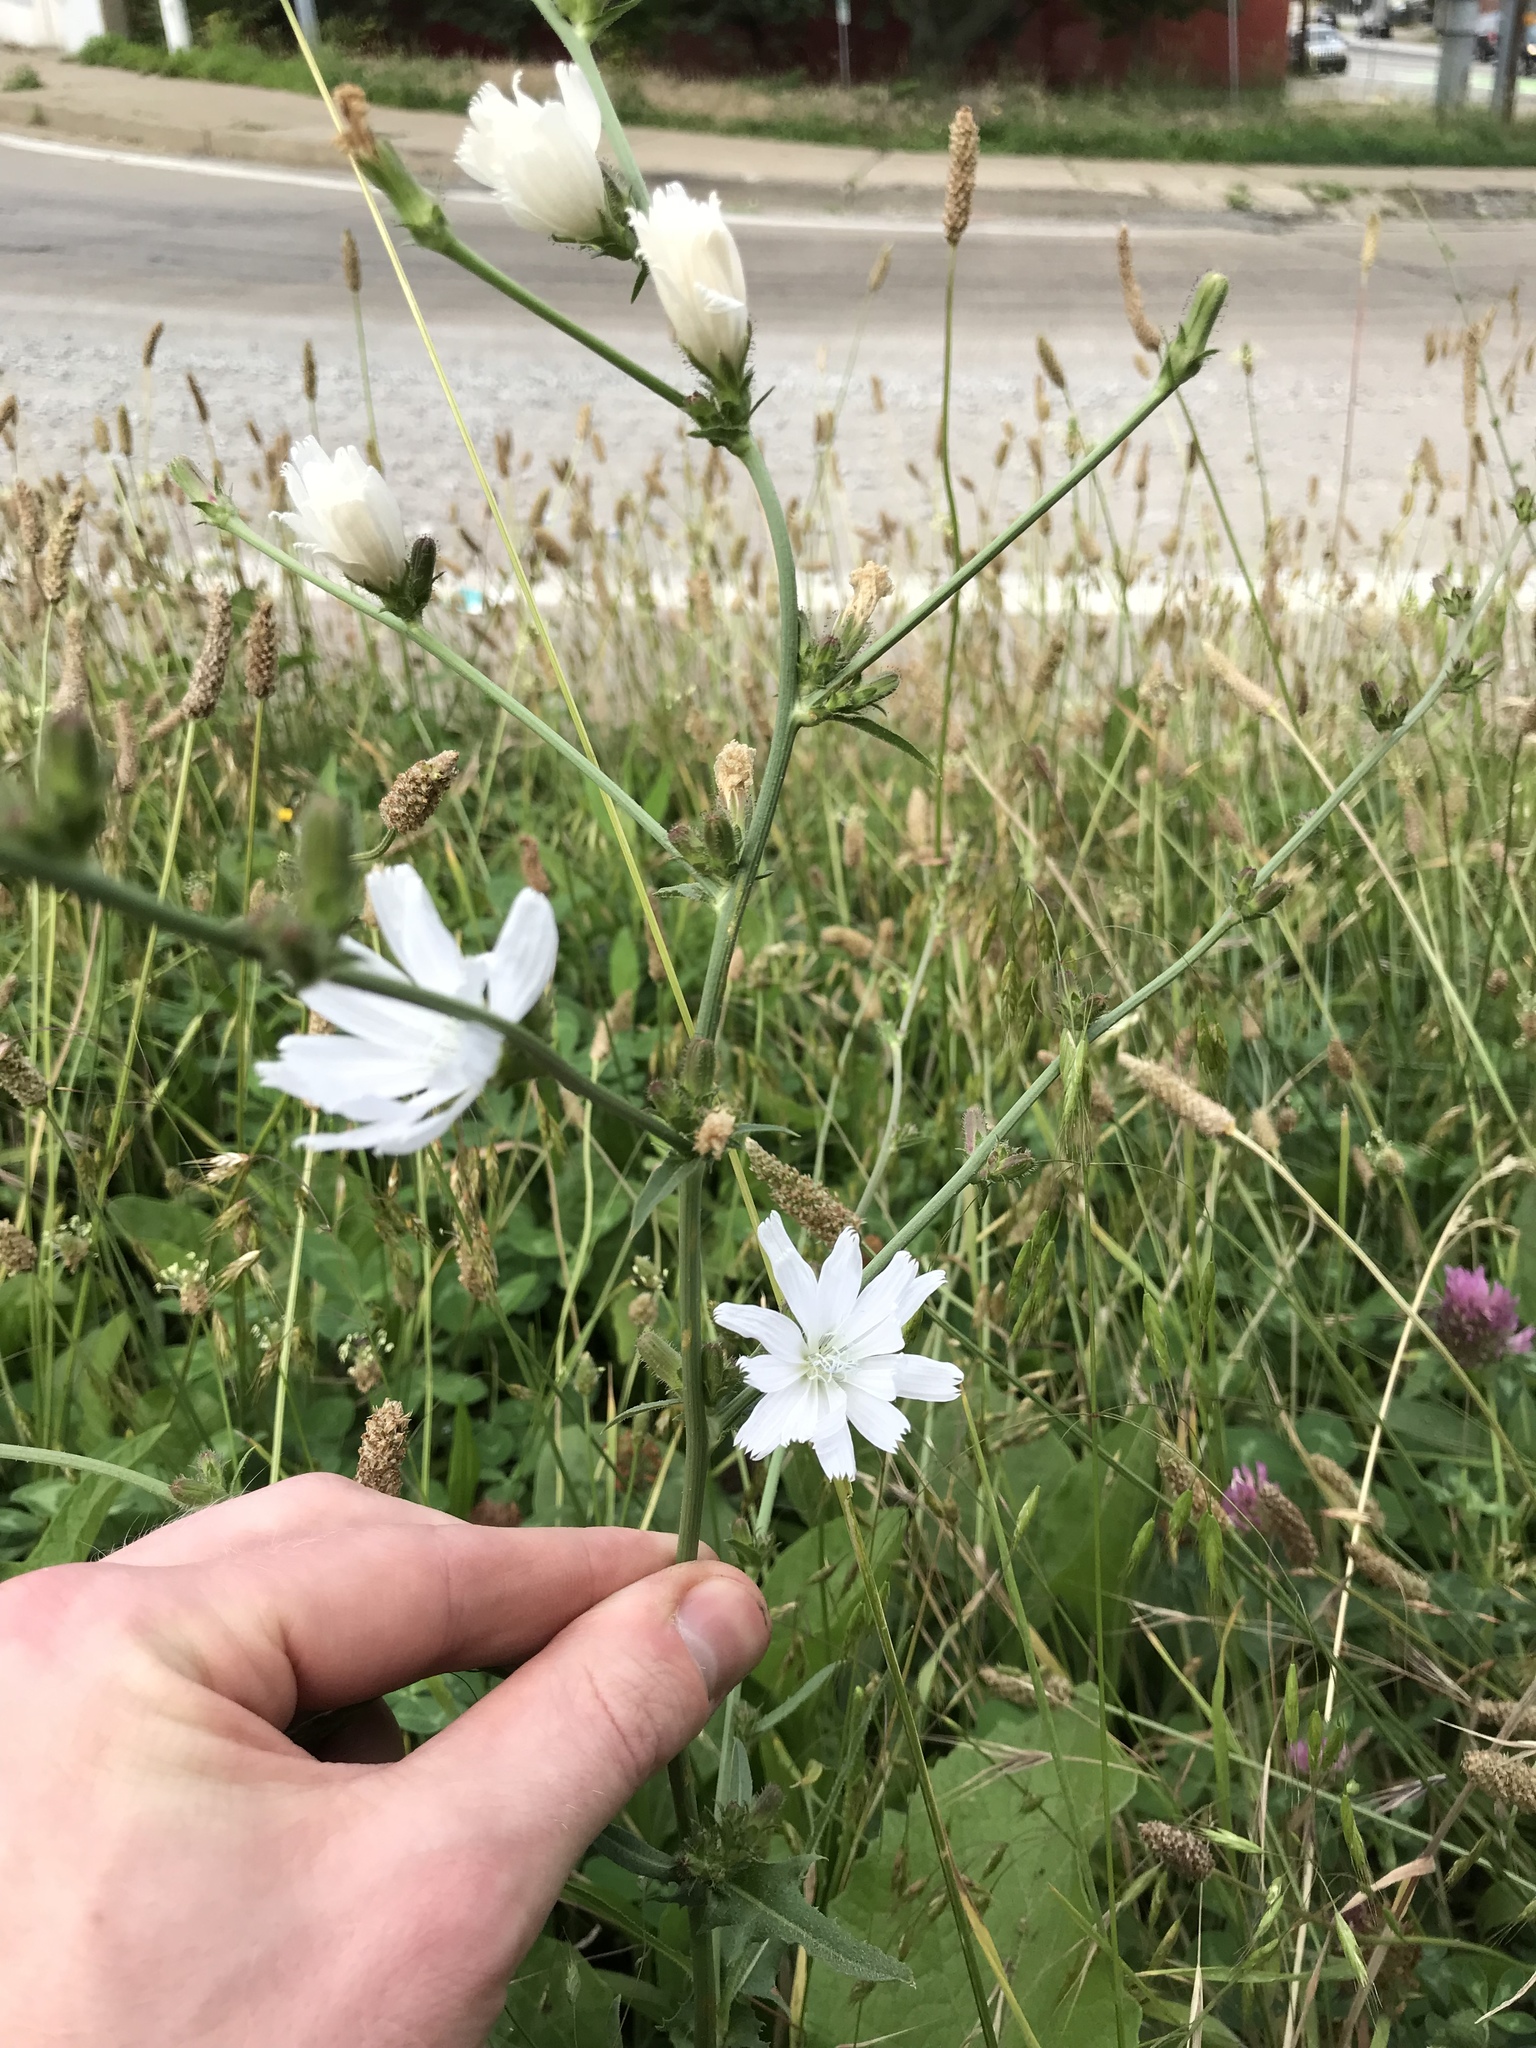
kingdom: Plantae
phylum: Tracheophyta
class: Magnoliopsida
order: Asterales
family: Asteraceae
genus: Cichorium
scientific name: Cichorium intybus
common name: Chicory
